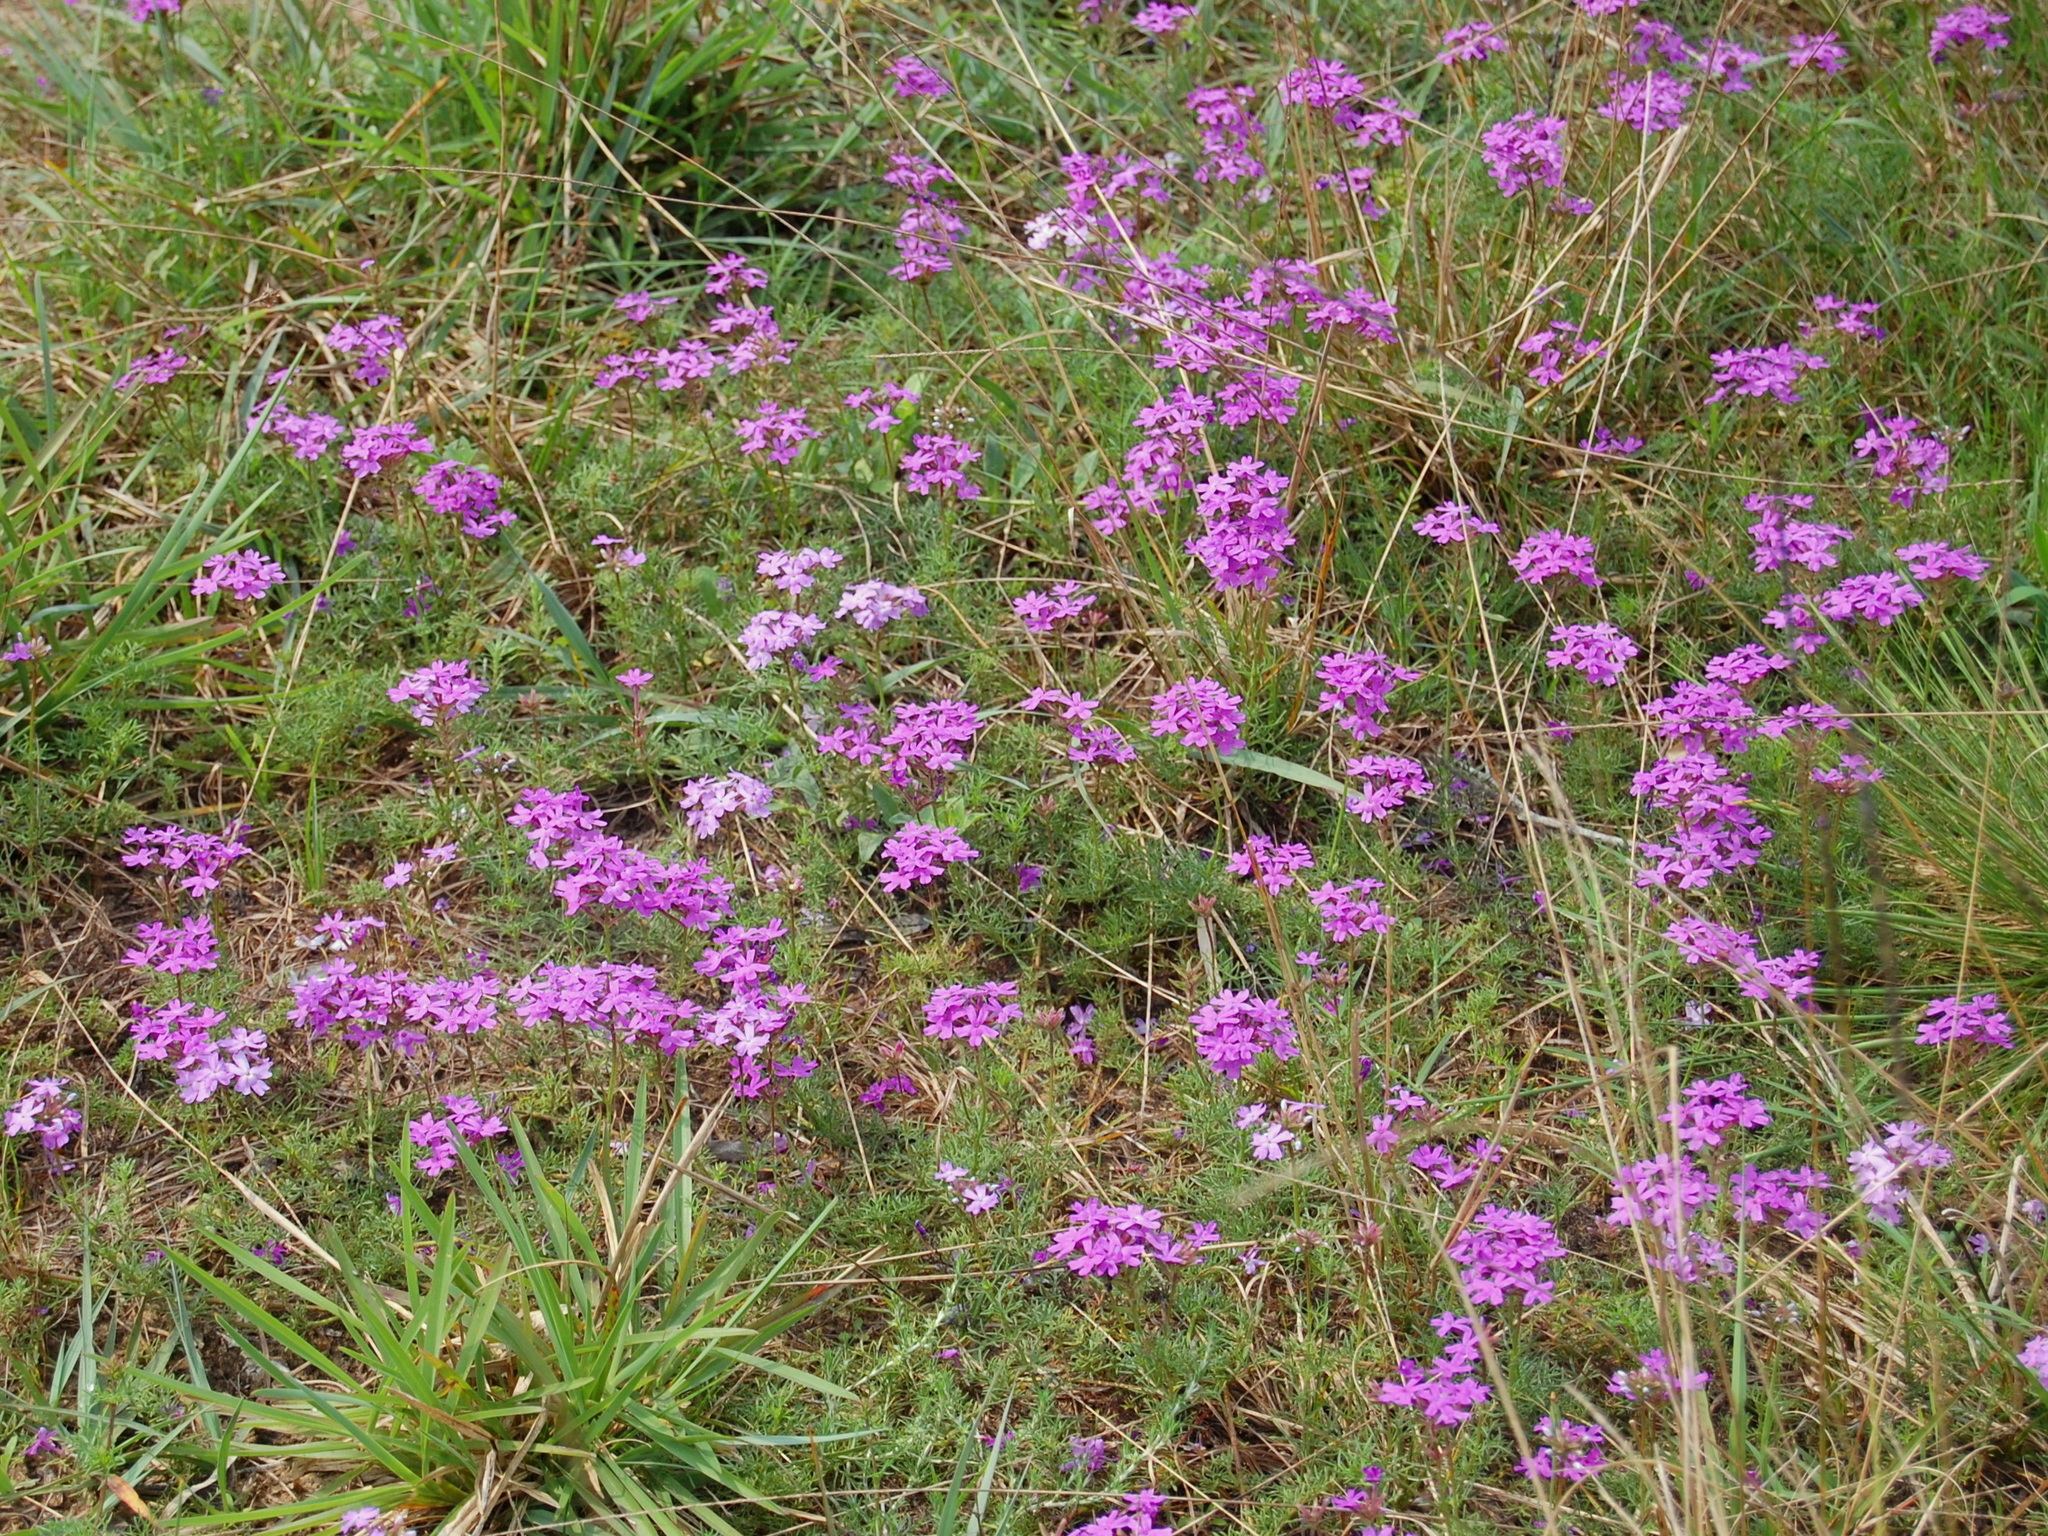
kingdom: Plantae
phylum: Tracheophyta
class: Magnoliopsida
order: Lamiales
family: Verbenaceae
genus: Verbena
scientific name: Verbena
